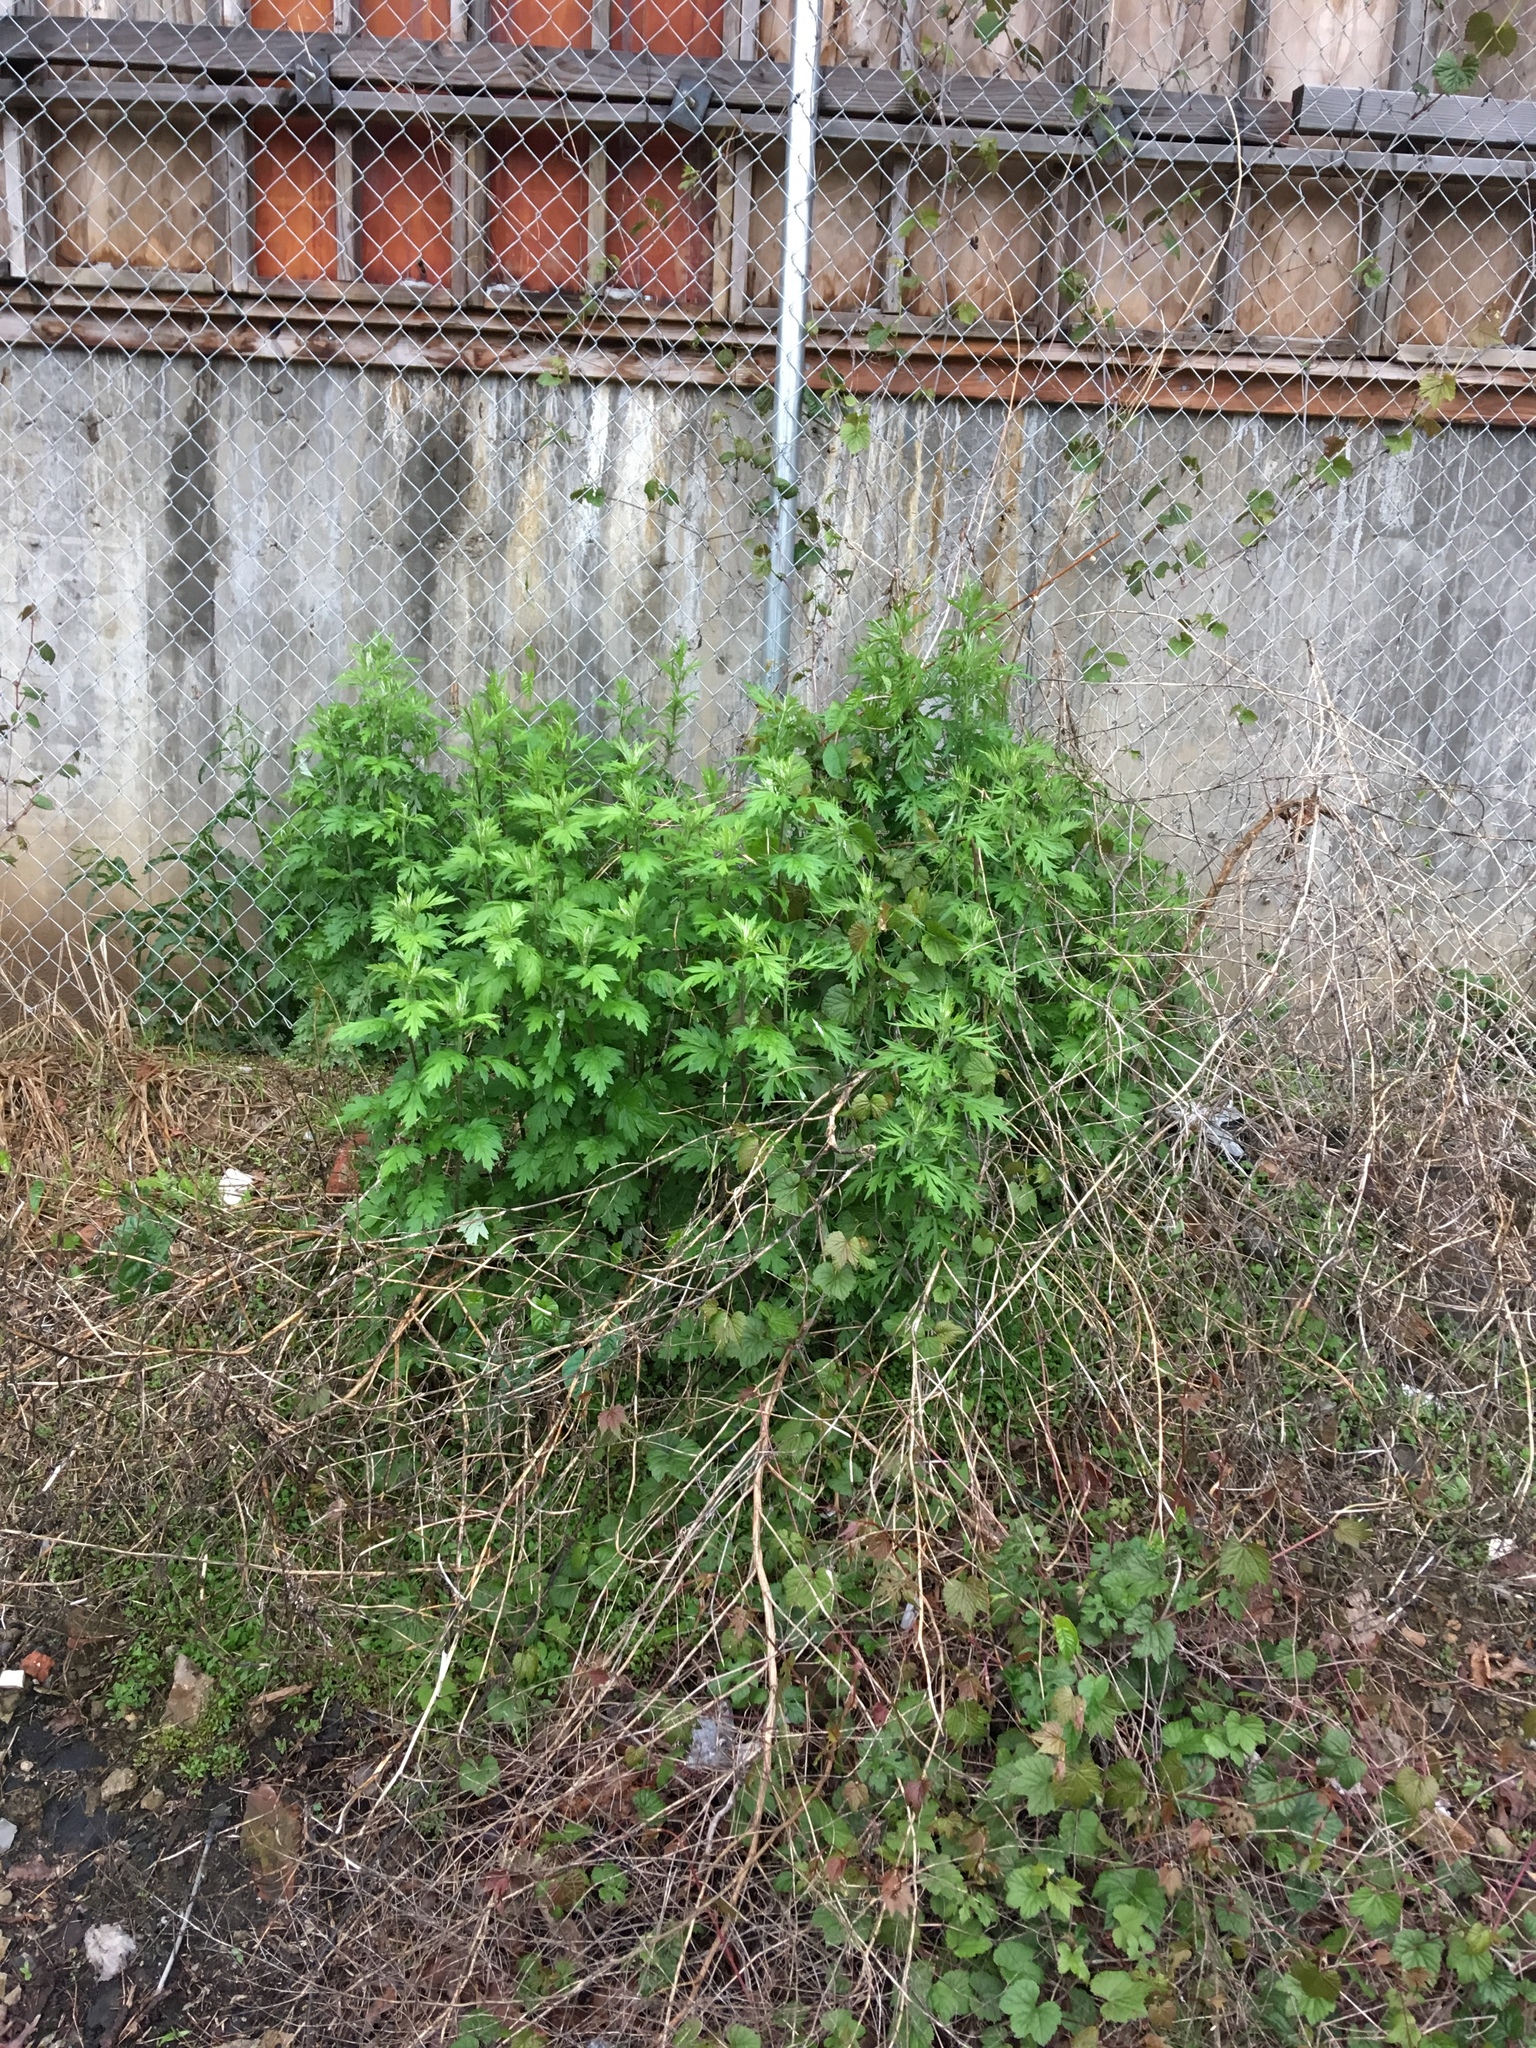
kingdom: Plantae
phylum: Tracheophyta
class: Magnoliopsida
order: Vitales
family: Vitaceae
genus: Ampelopsis
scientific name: Ampelopsis glandulosa
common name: Amur peppervine
